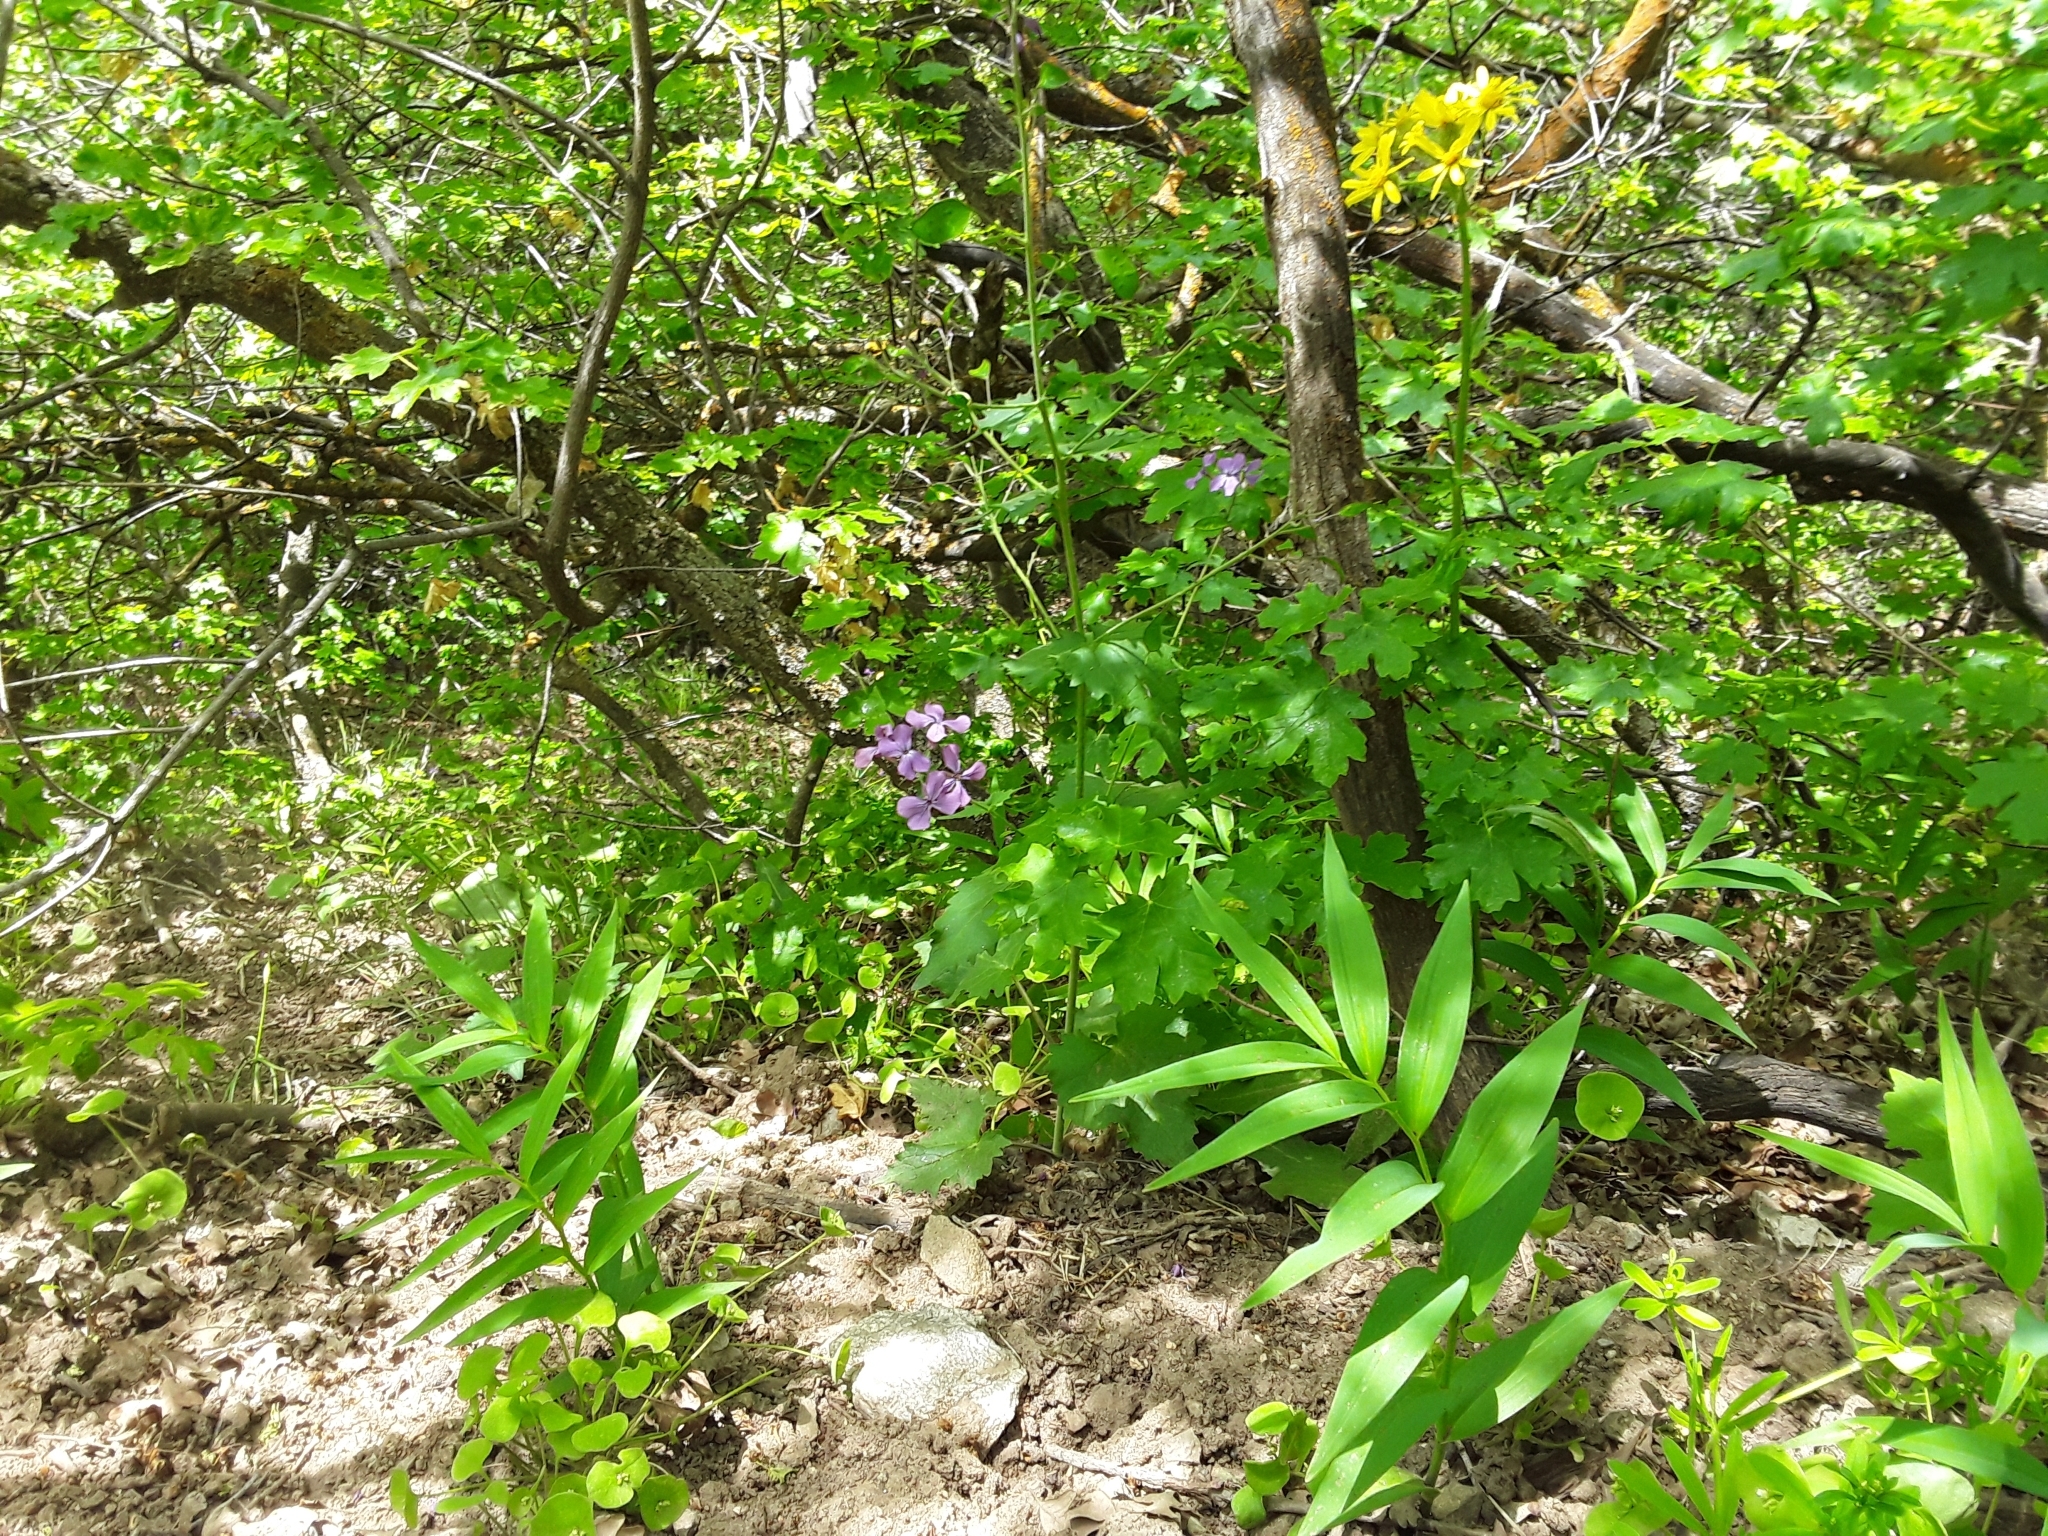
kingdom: Plantae
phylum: Tracheophyta
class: Magnoliopsida
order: Brassicales
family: Brassicaceae
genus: Lunaria
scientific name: Lunaria annua
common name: Honesty
